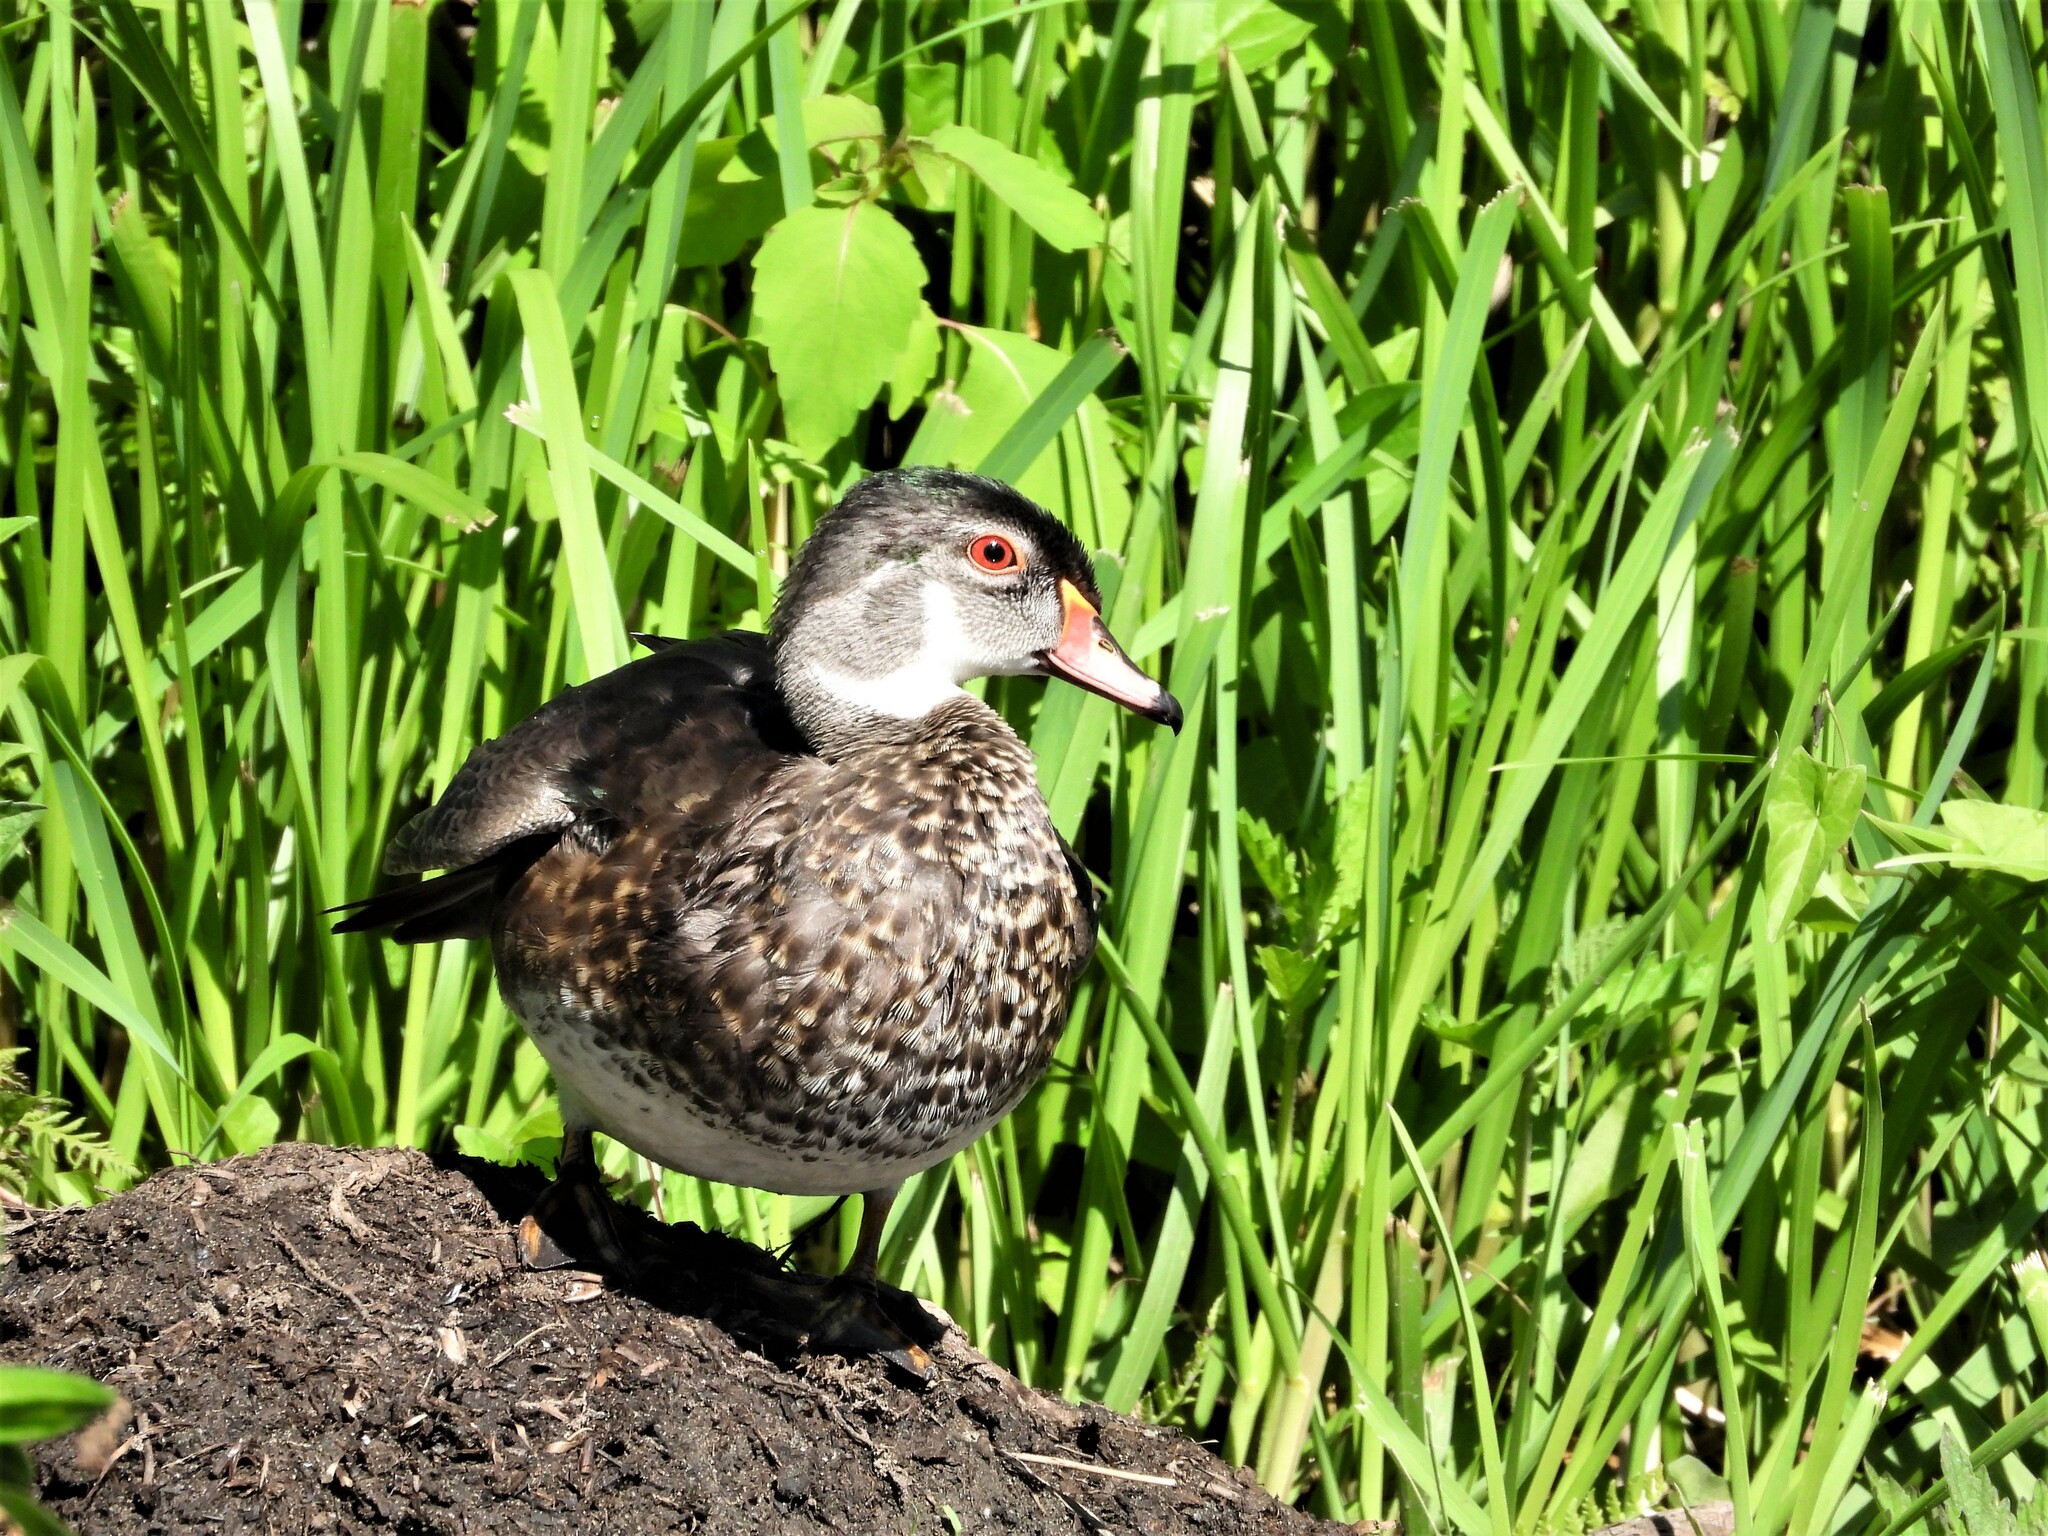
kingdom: Animalia
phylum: Chordata
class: Aves
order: Anseriformes
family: Anatidae
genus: Aix
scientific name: Aix sponsa
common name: Wood duck
